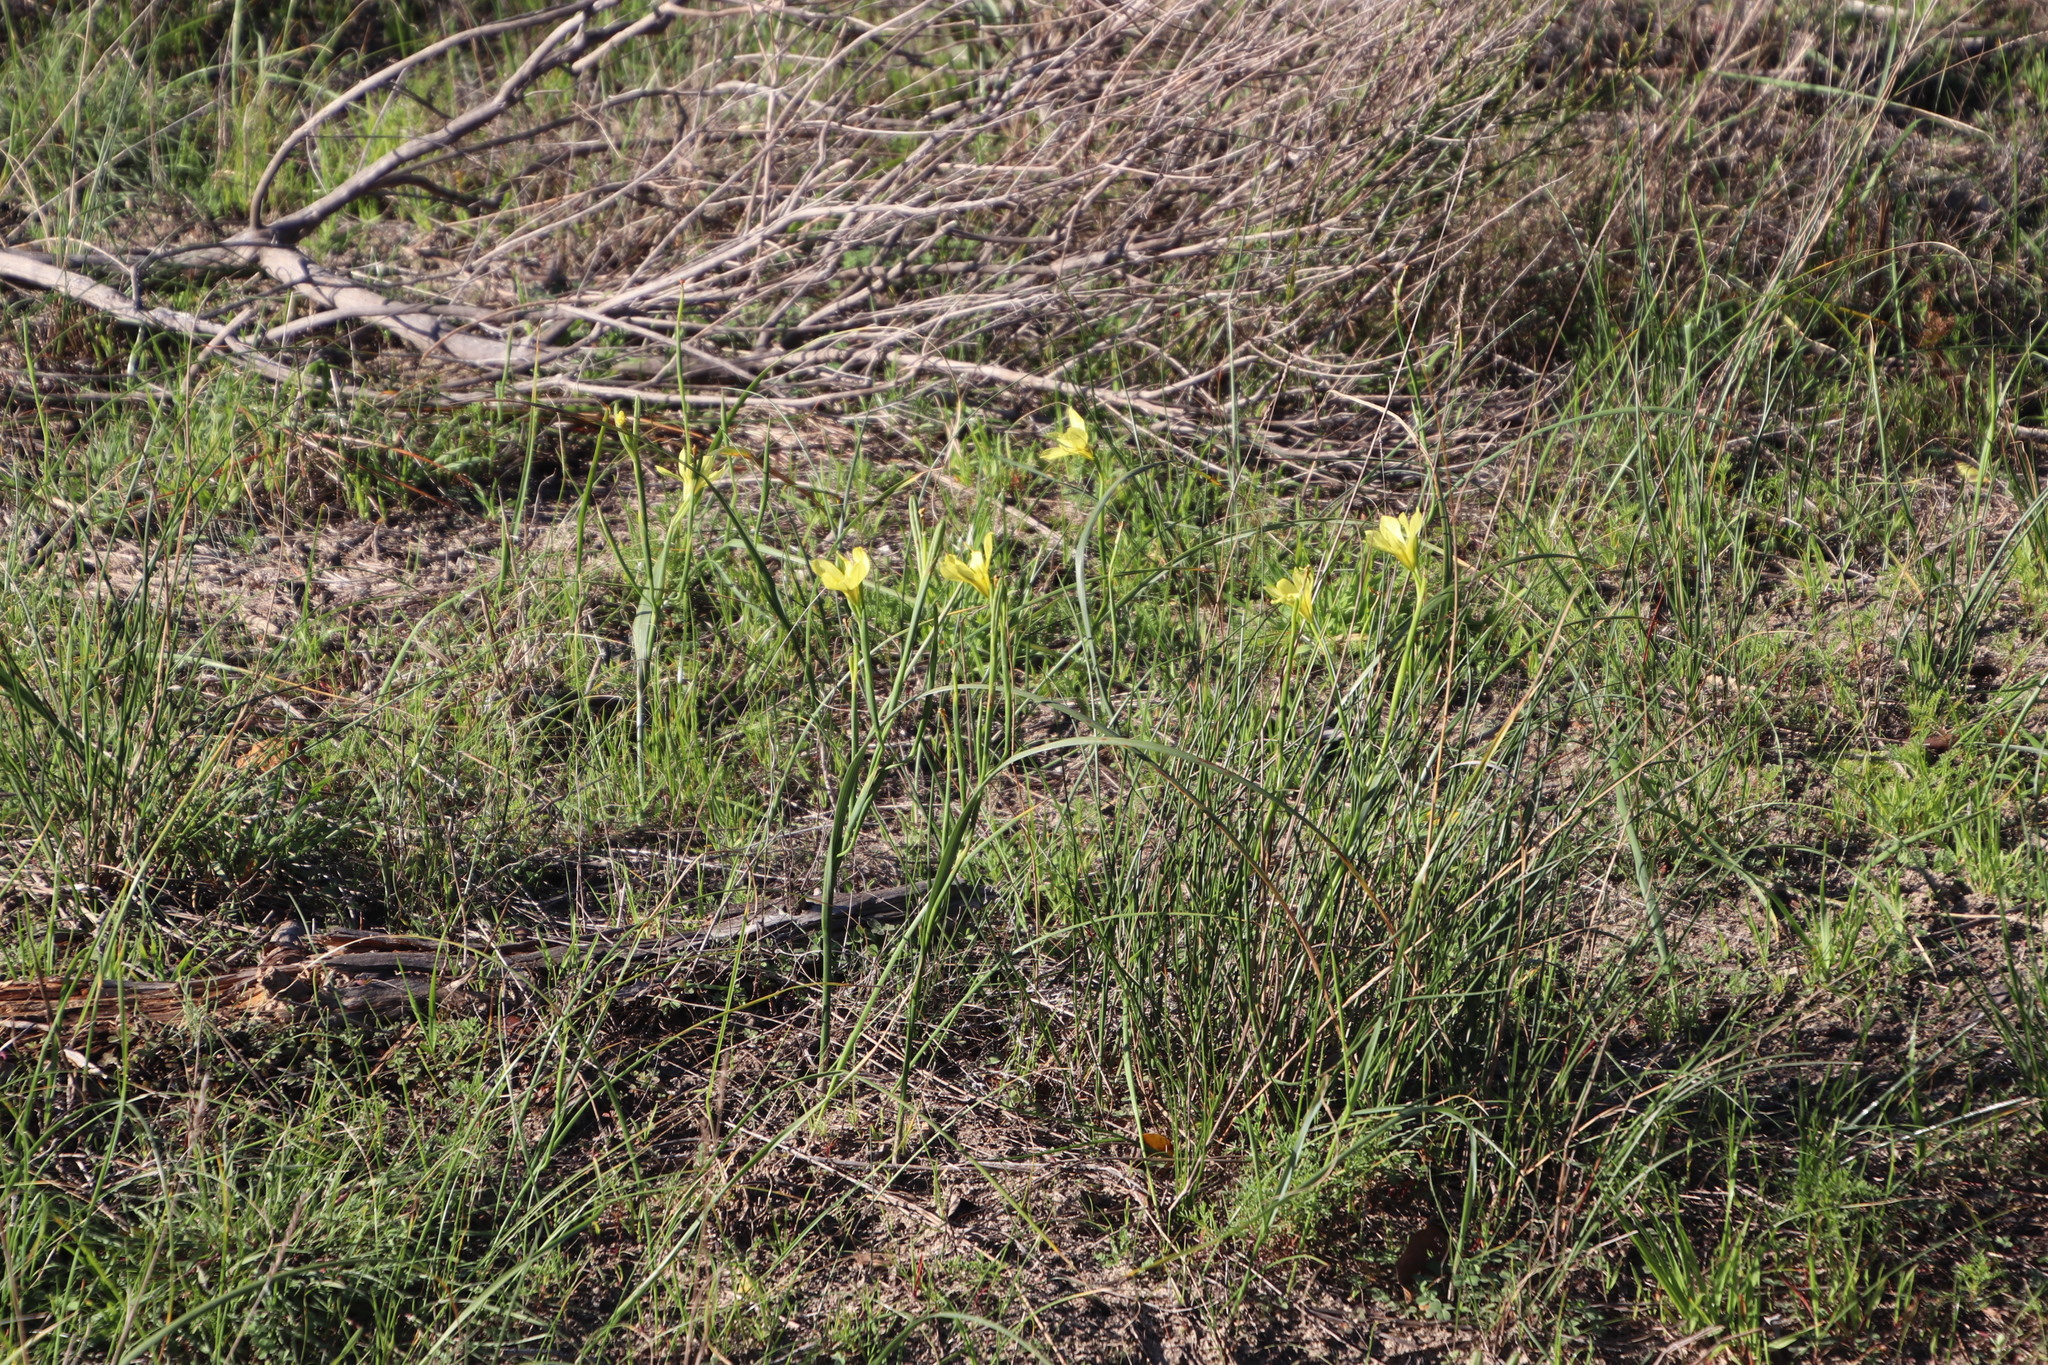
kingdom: Plantae
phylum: Tracheophyta
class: Liliopsida
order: Asparagales
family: Iridaceae
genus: Moraea
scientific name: Moraea collina
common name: Cape-tulip
